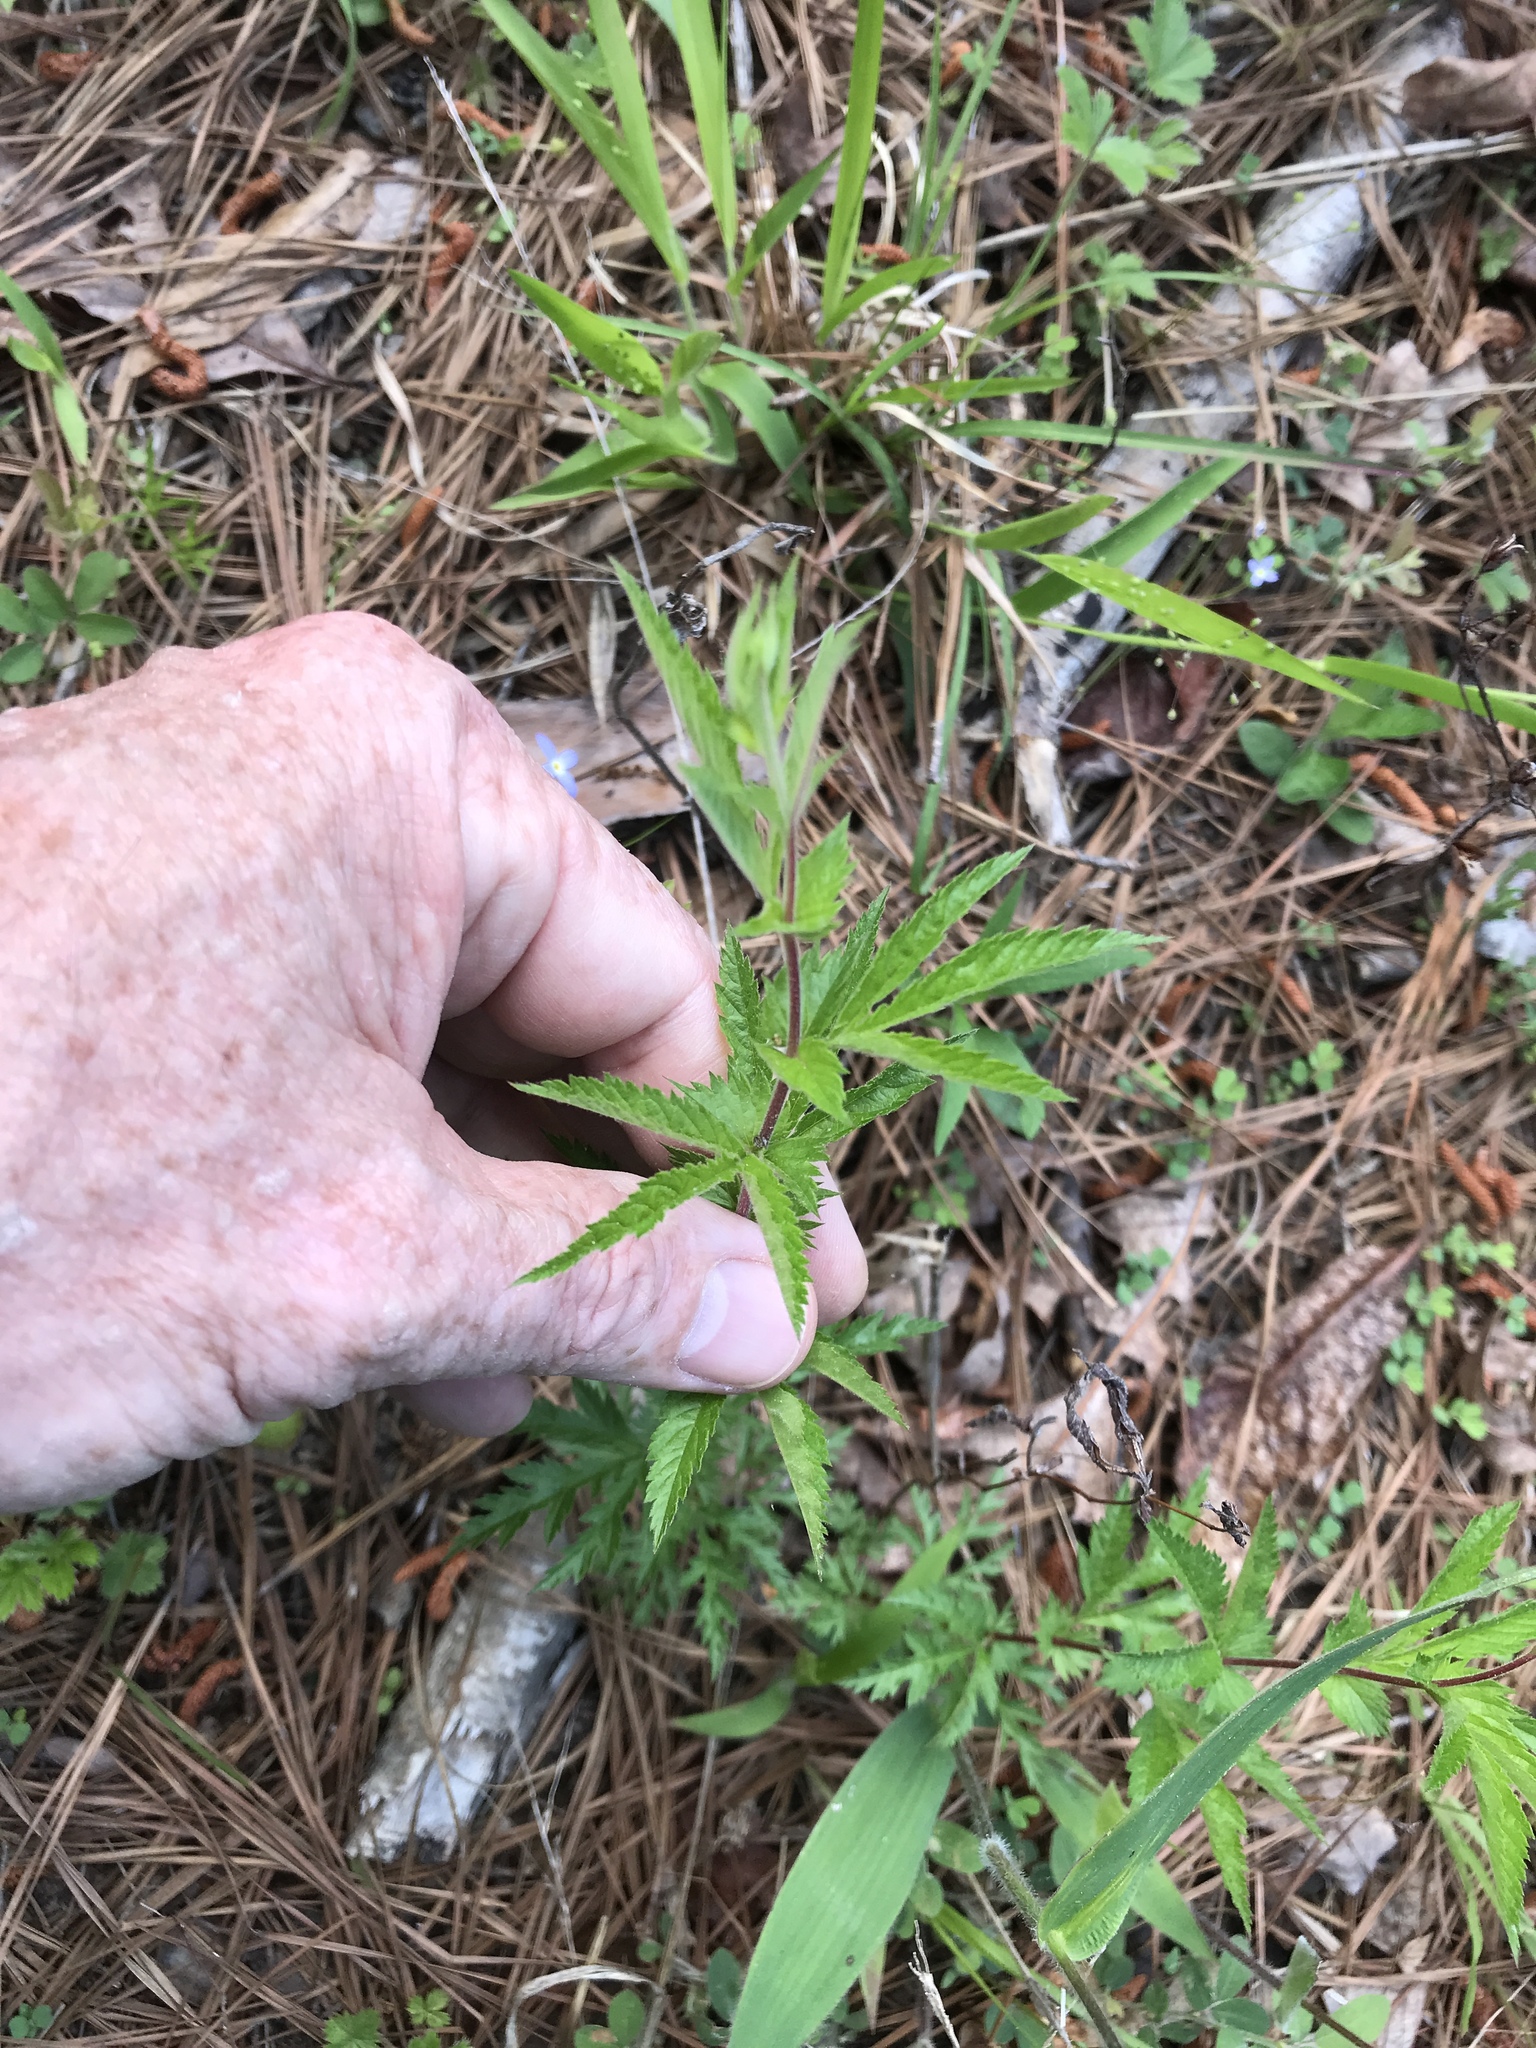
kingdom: Plantae
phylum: Tracheophyta
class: Magnoliopsida
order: Rosales
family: Rosaceae
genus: Gillenia
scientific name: Gillenia stipulata
